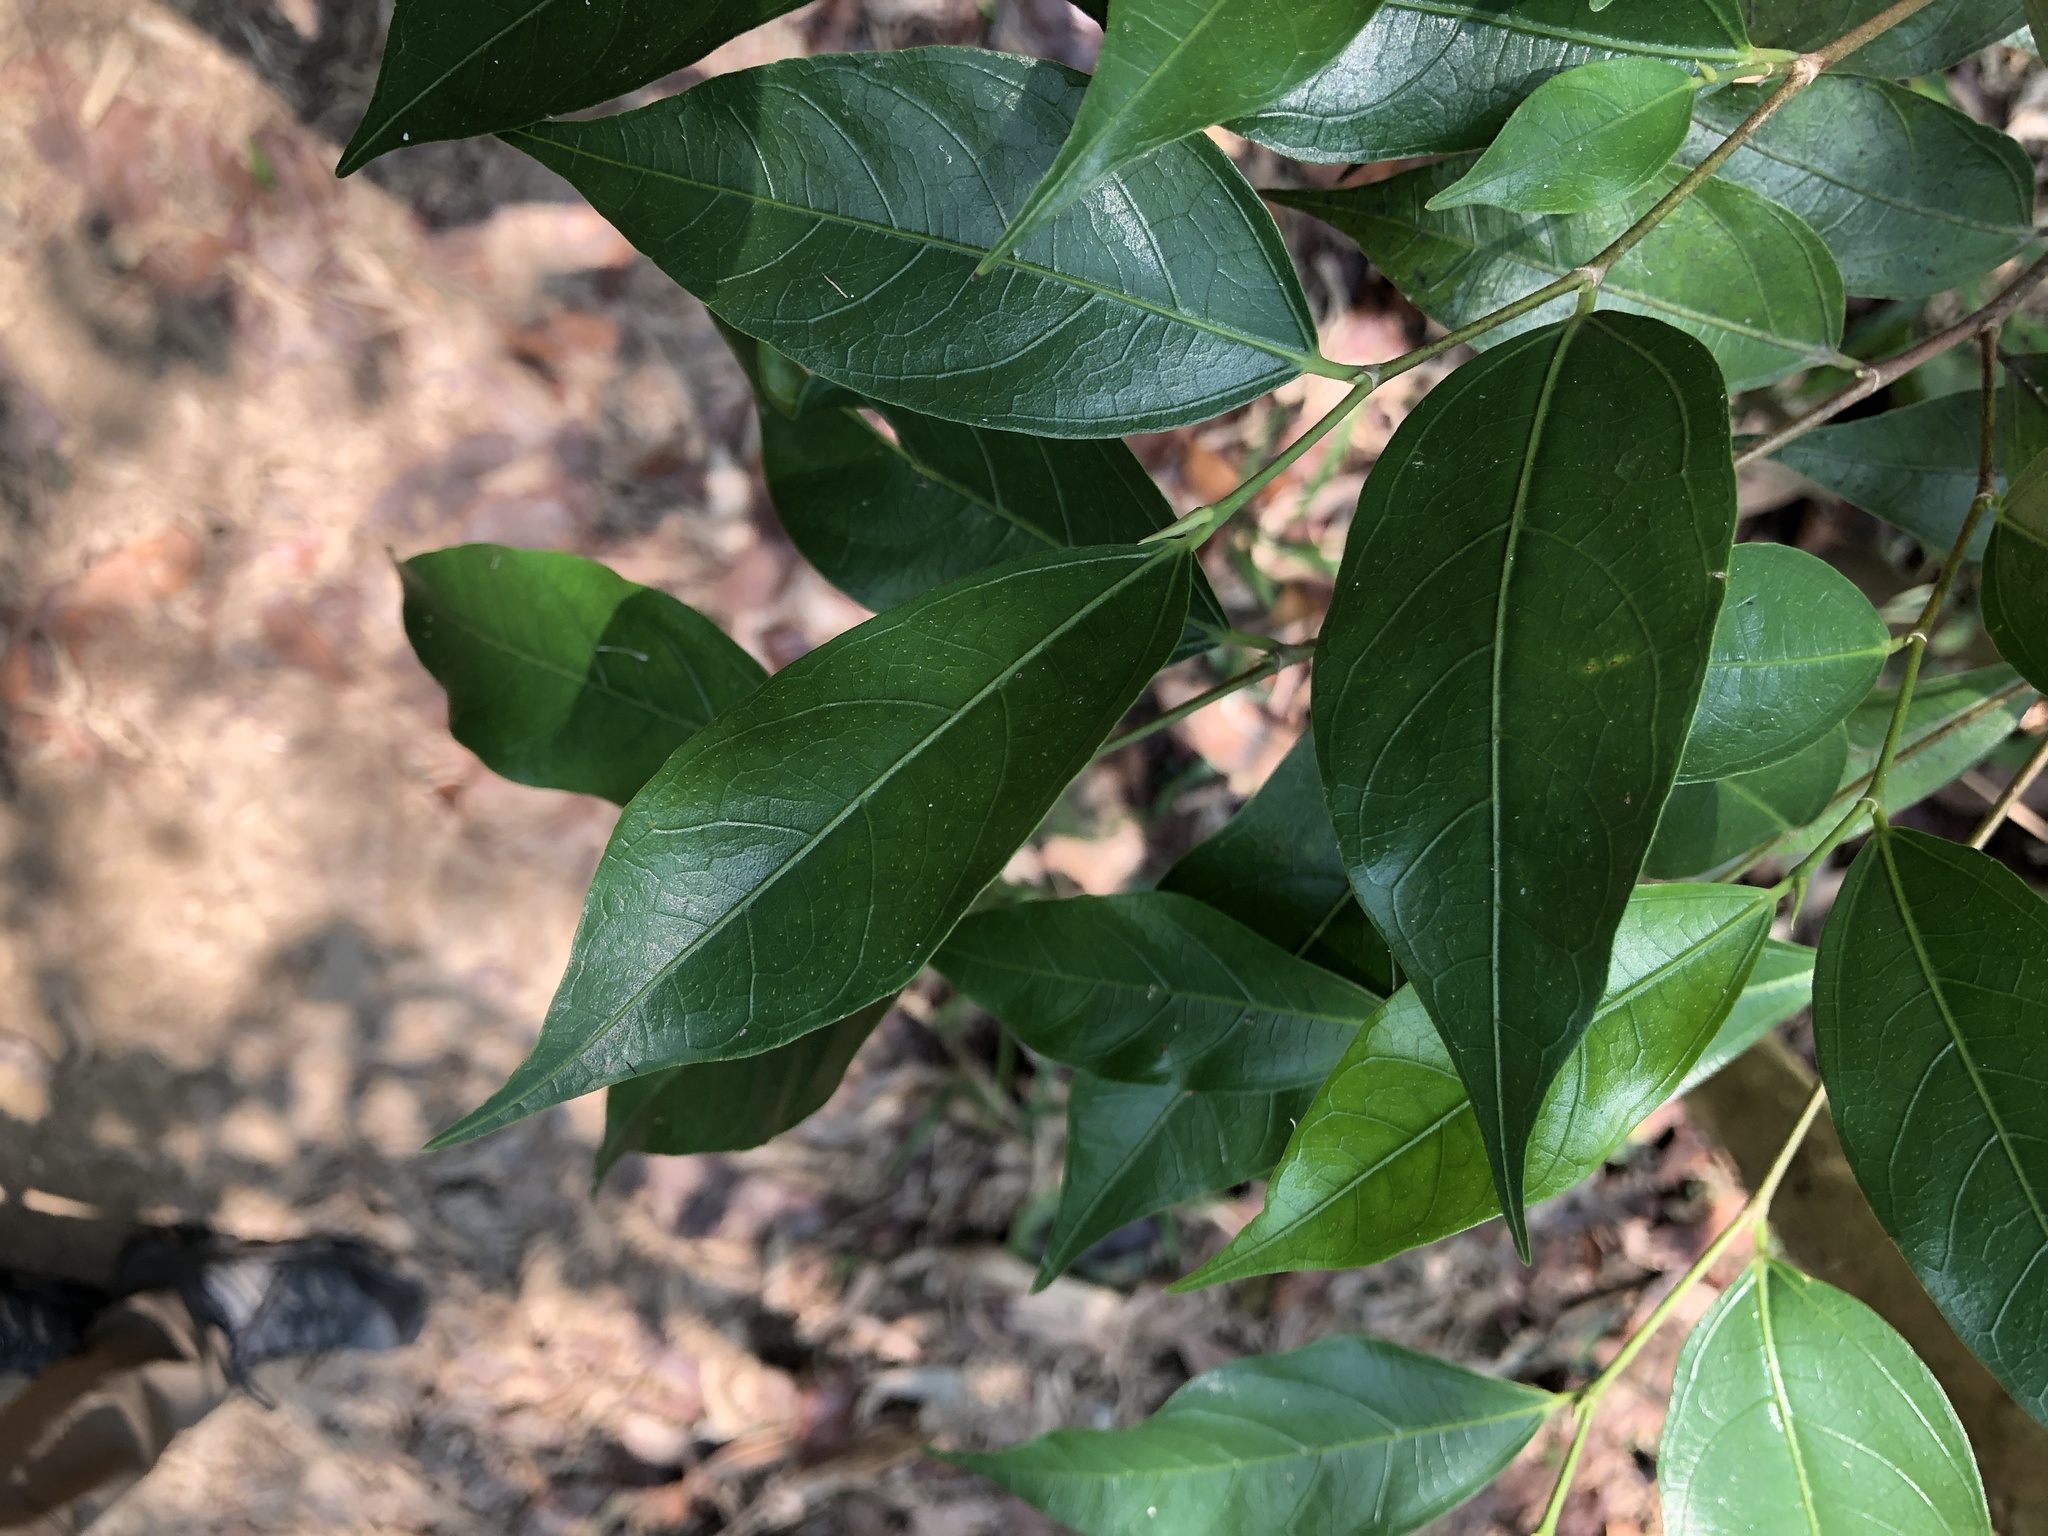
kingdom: Plantae
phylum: Tracheophyta
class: Magnoliopsida
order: Rosales
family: Moraceae
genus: Ficus
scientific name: Ficus ampelos
